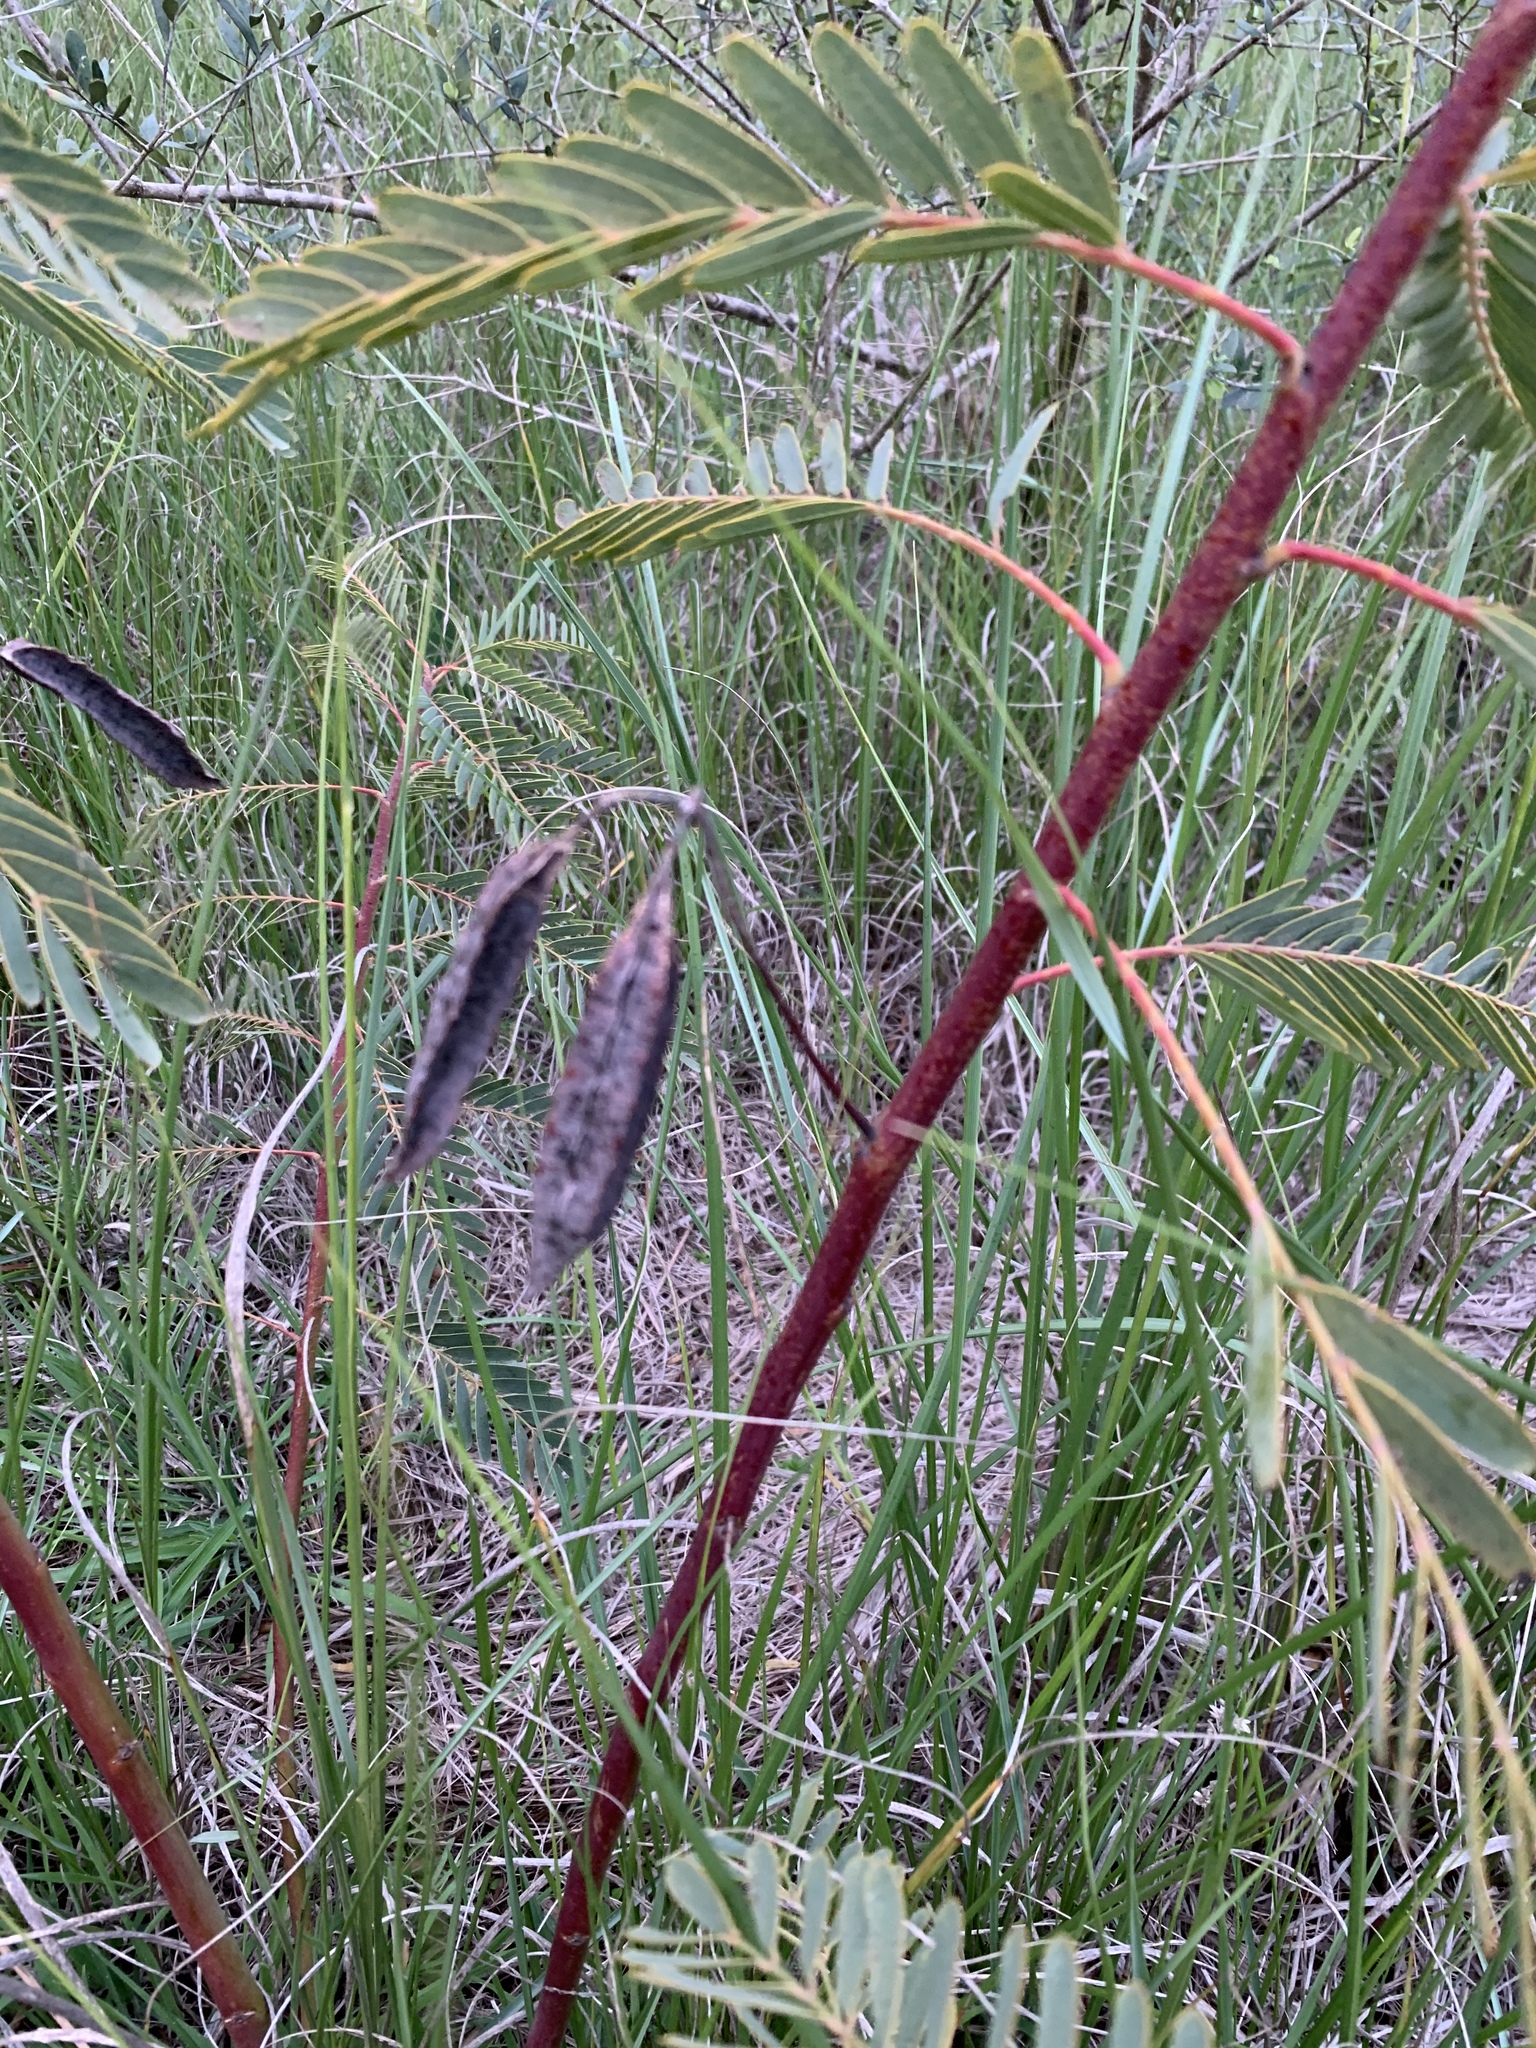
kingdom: Plantae
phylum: Tracheophyta
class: Magnoliopsida
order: Fabales
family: Fabaceae
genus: Sesbania
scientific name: Sesbania punicea
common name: Rattlebox
